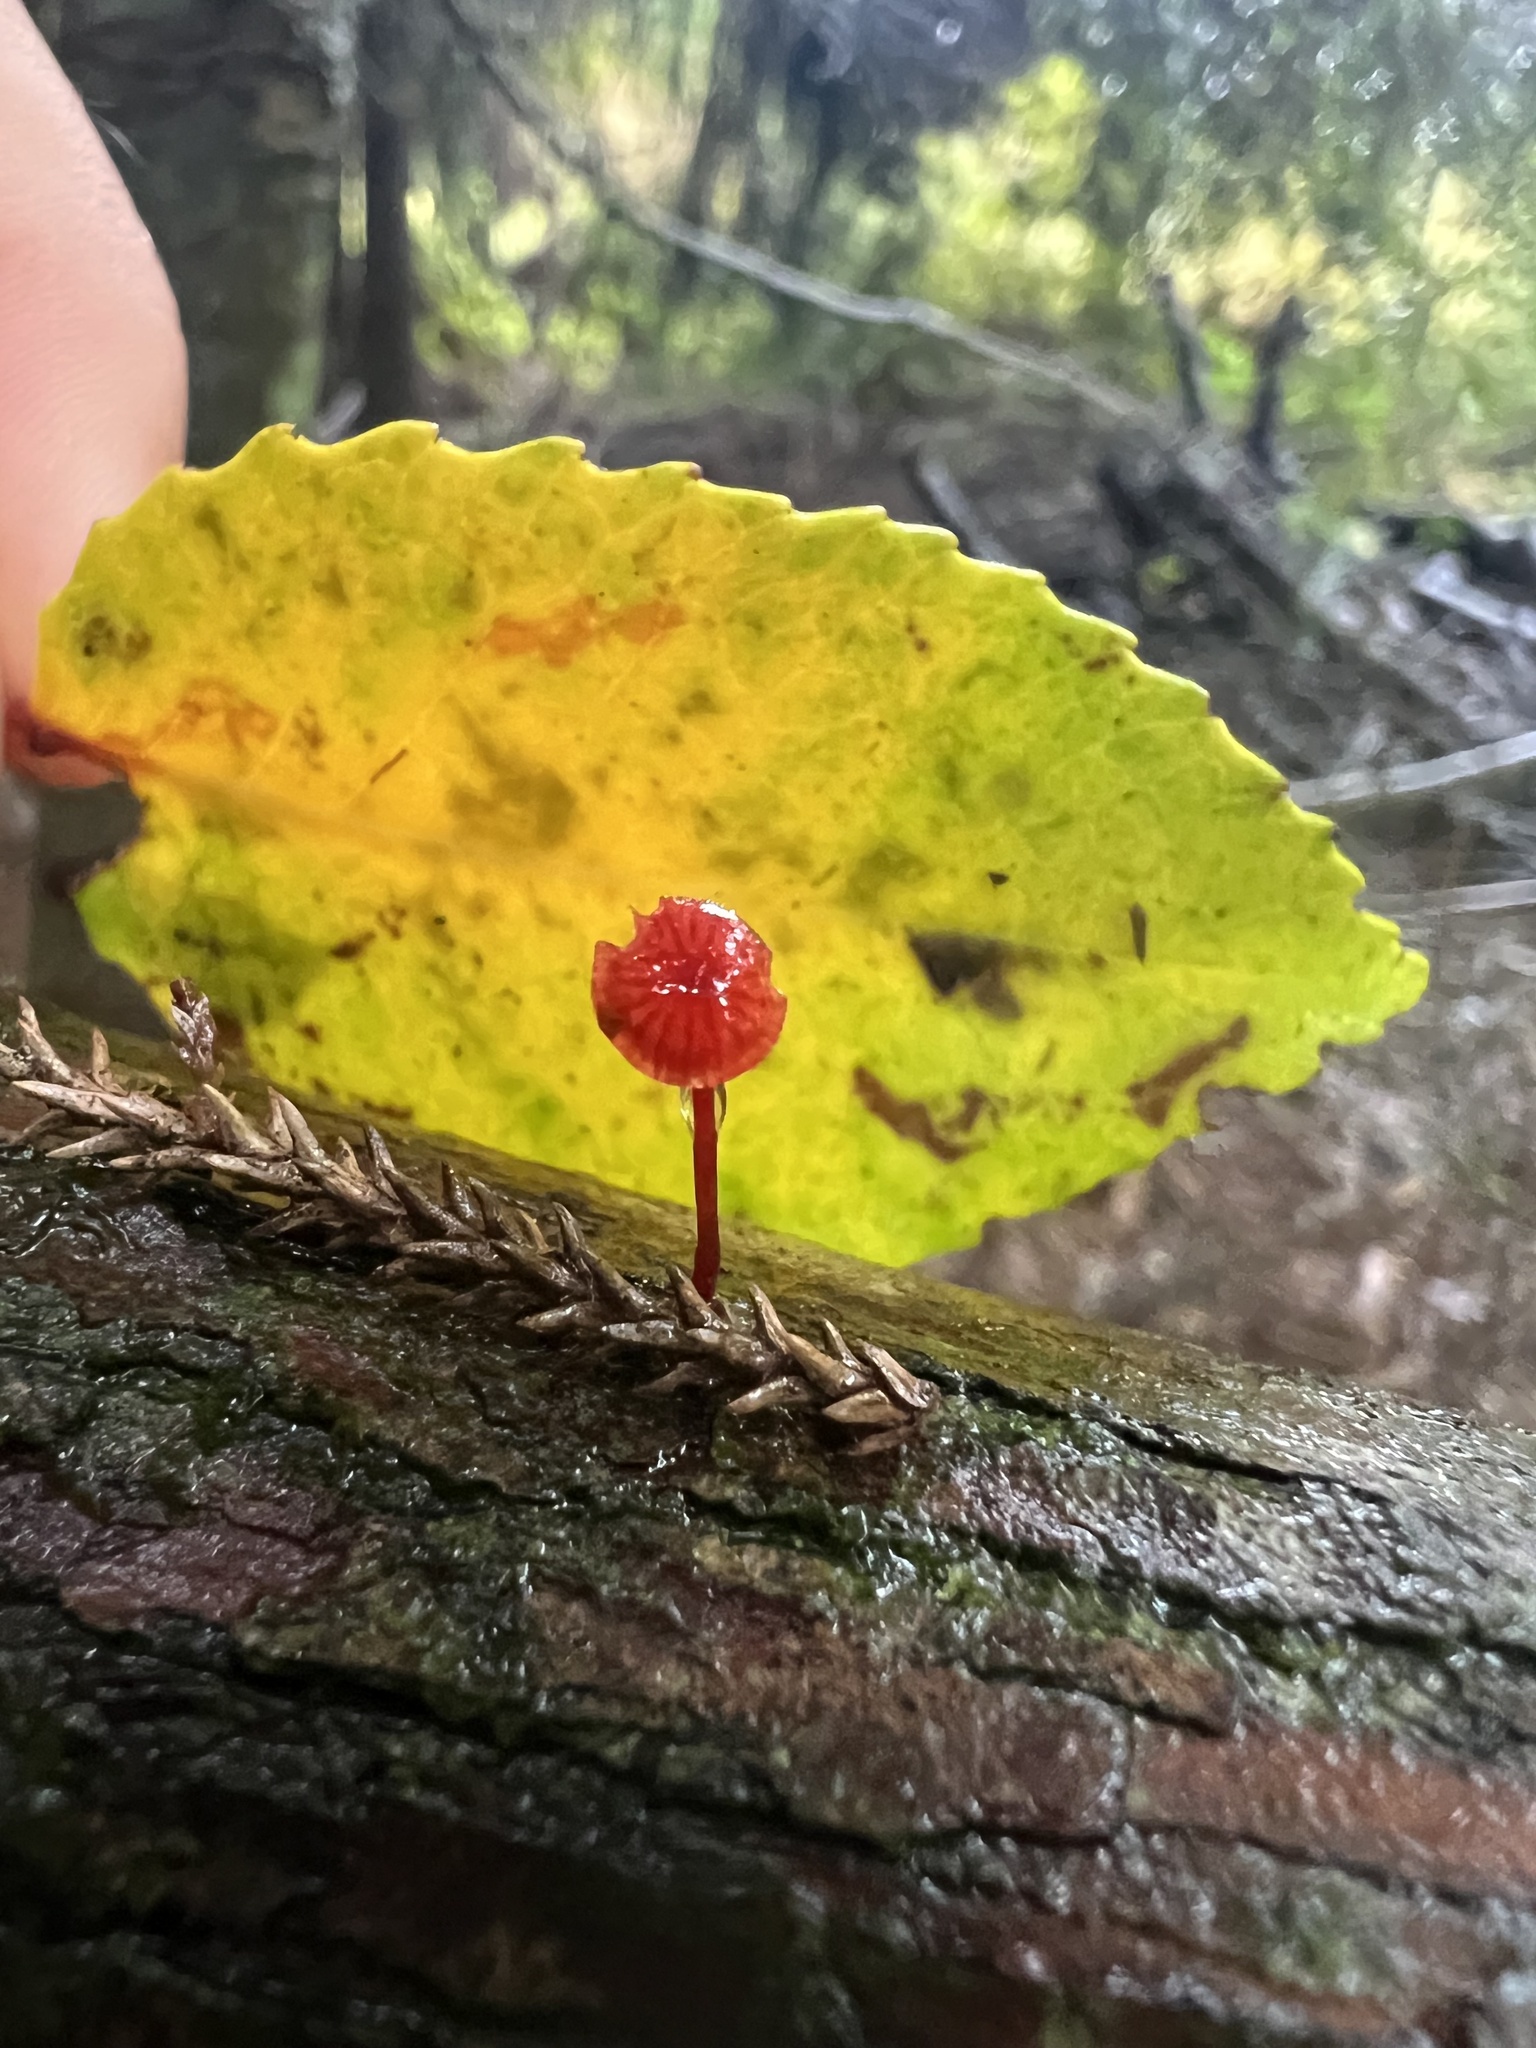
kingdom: Fungi
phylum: Basidiomycota
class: Agaricomycetes
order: Agaricales
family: Mycenaceae
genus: Cruentomycena
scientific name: Cruentomycena viscidocruenta
